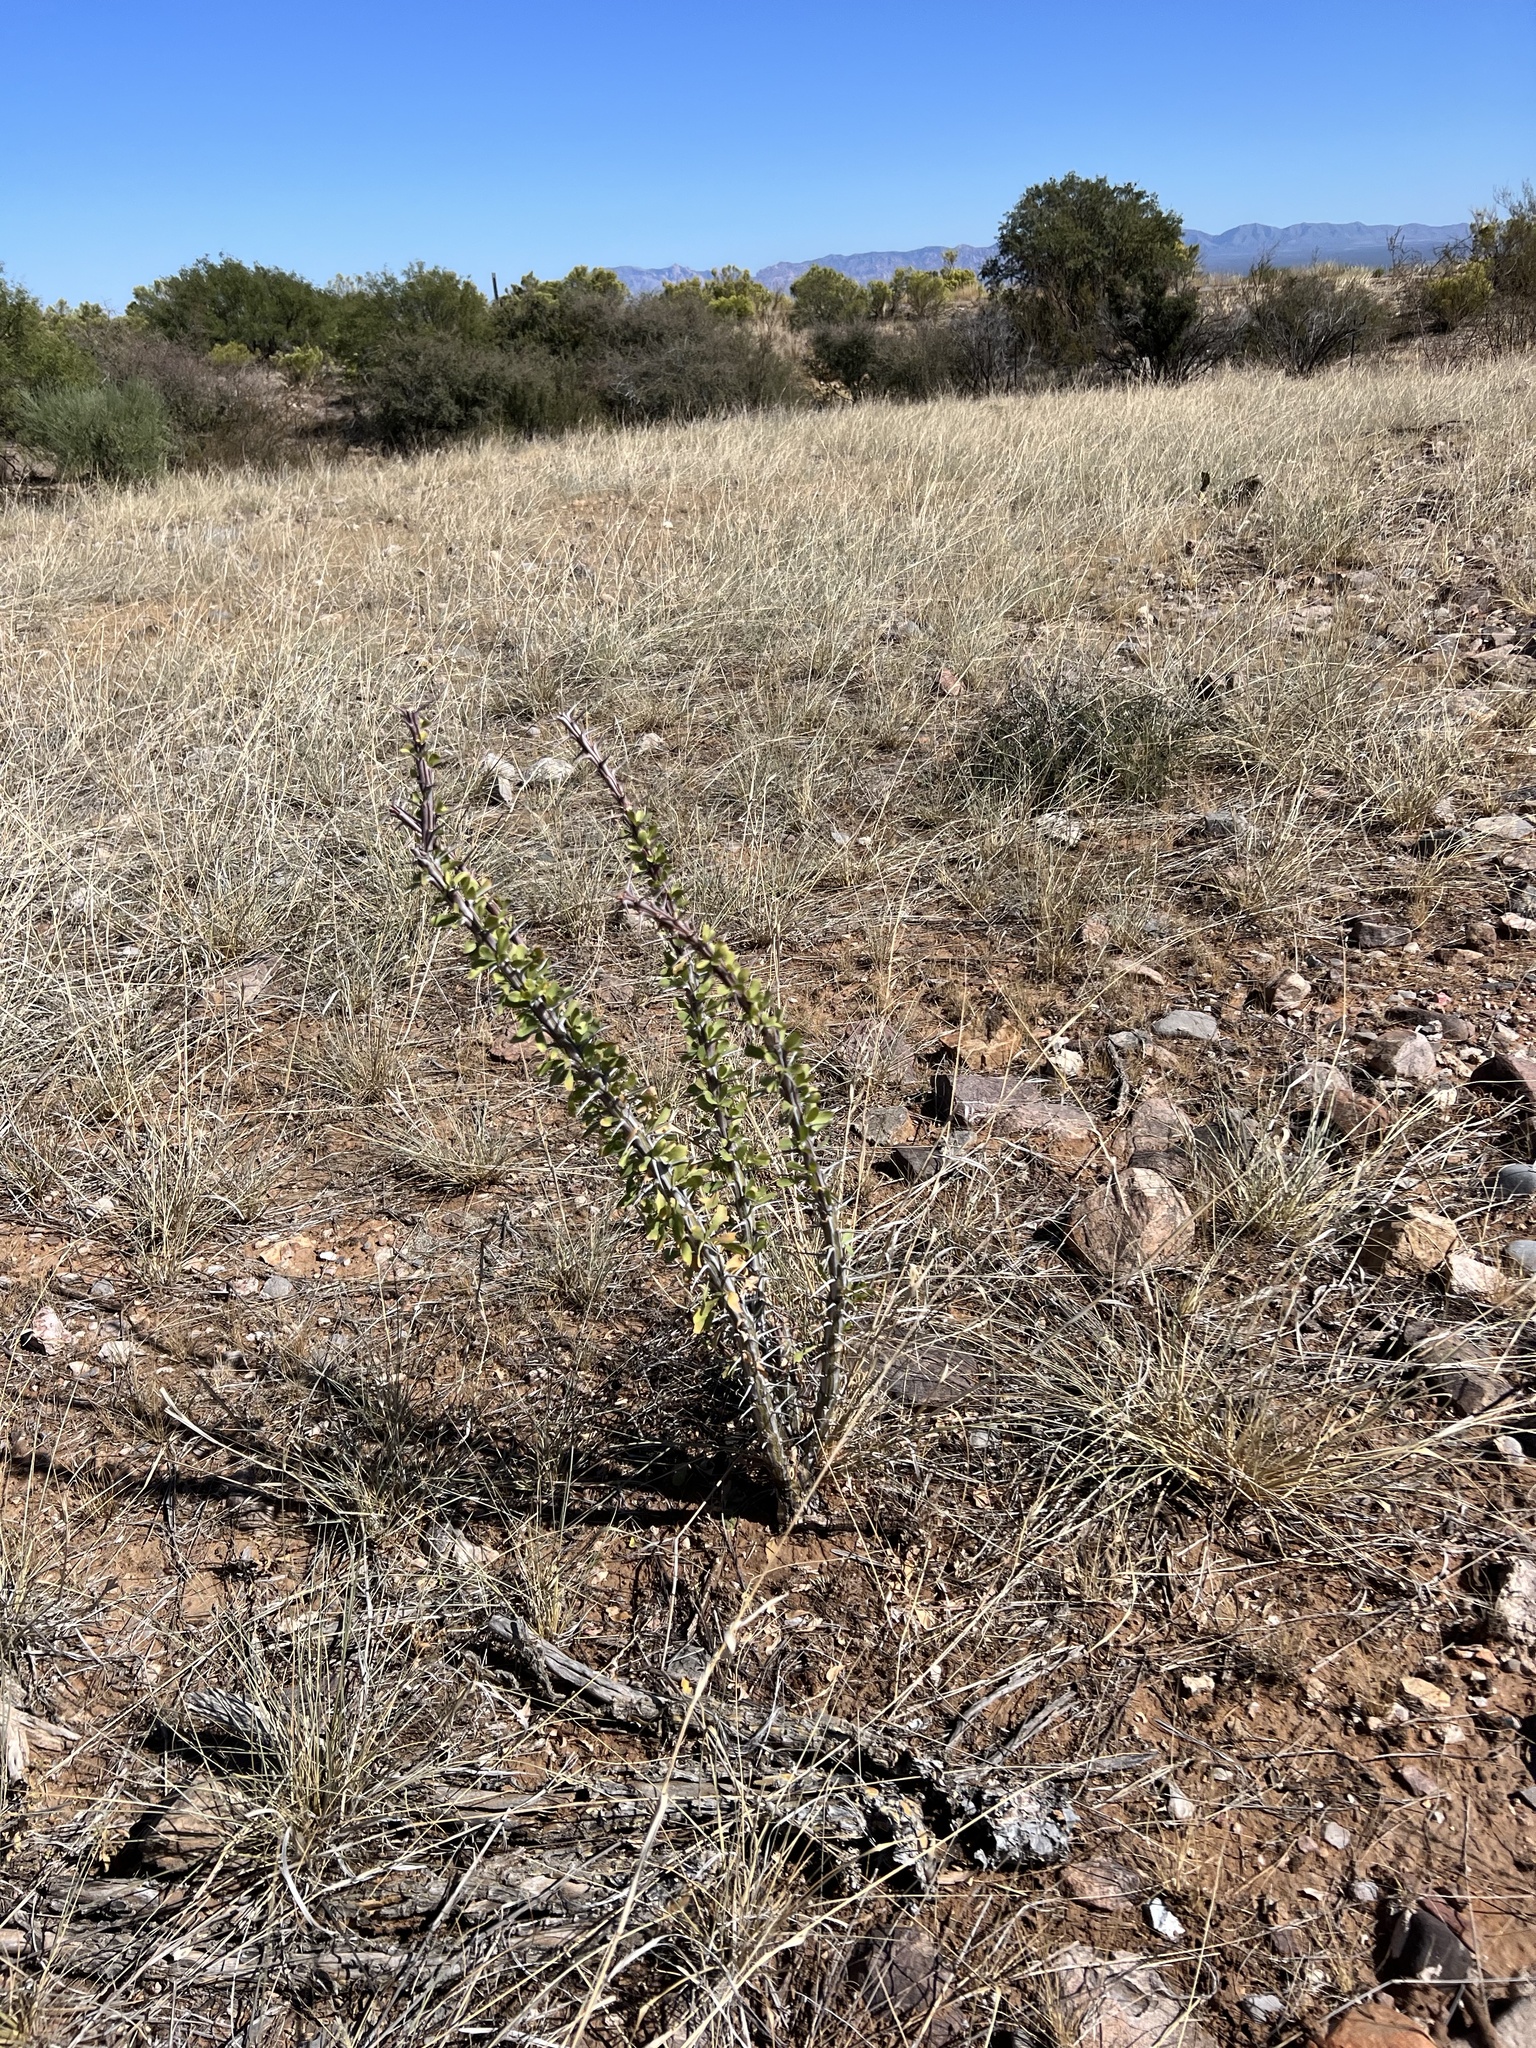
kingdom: Plantae
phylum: Tracheophyta
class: Magnoliopsida
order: Ericales
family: Fouquieriaceae
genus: Fouquieria
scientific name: Fouquieria splendens
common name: Vine-cactus
